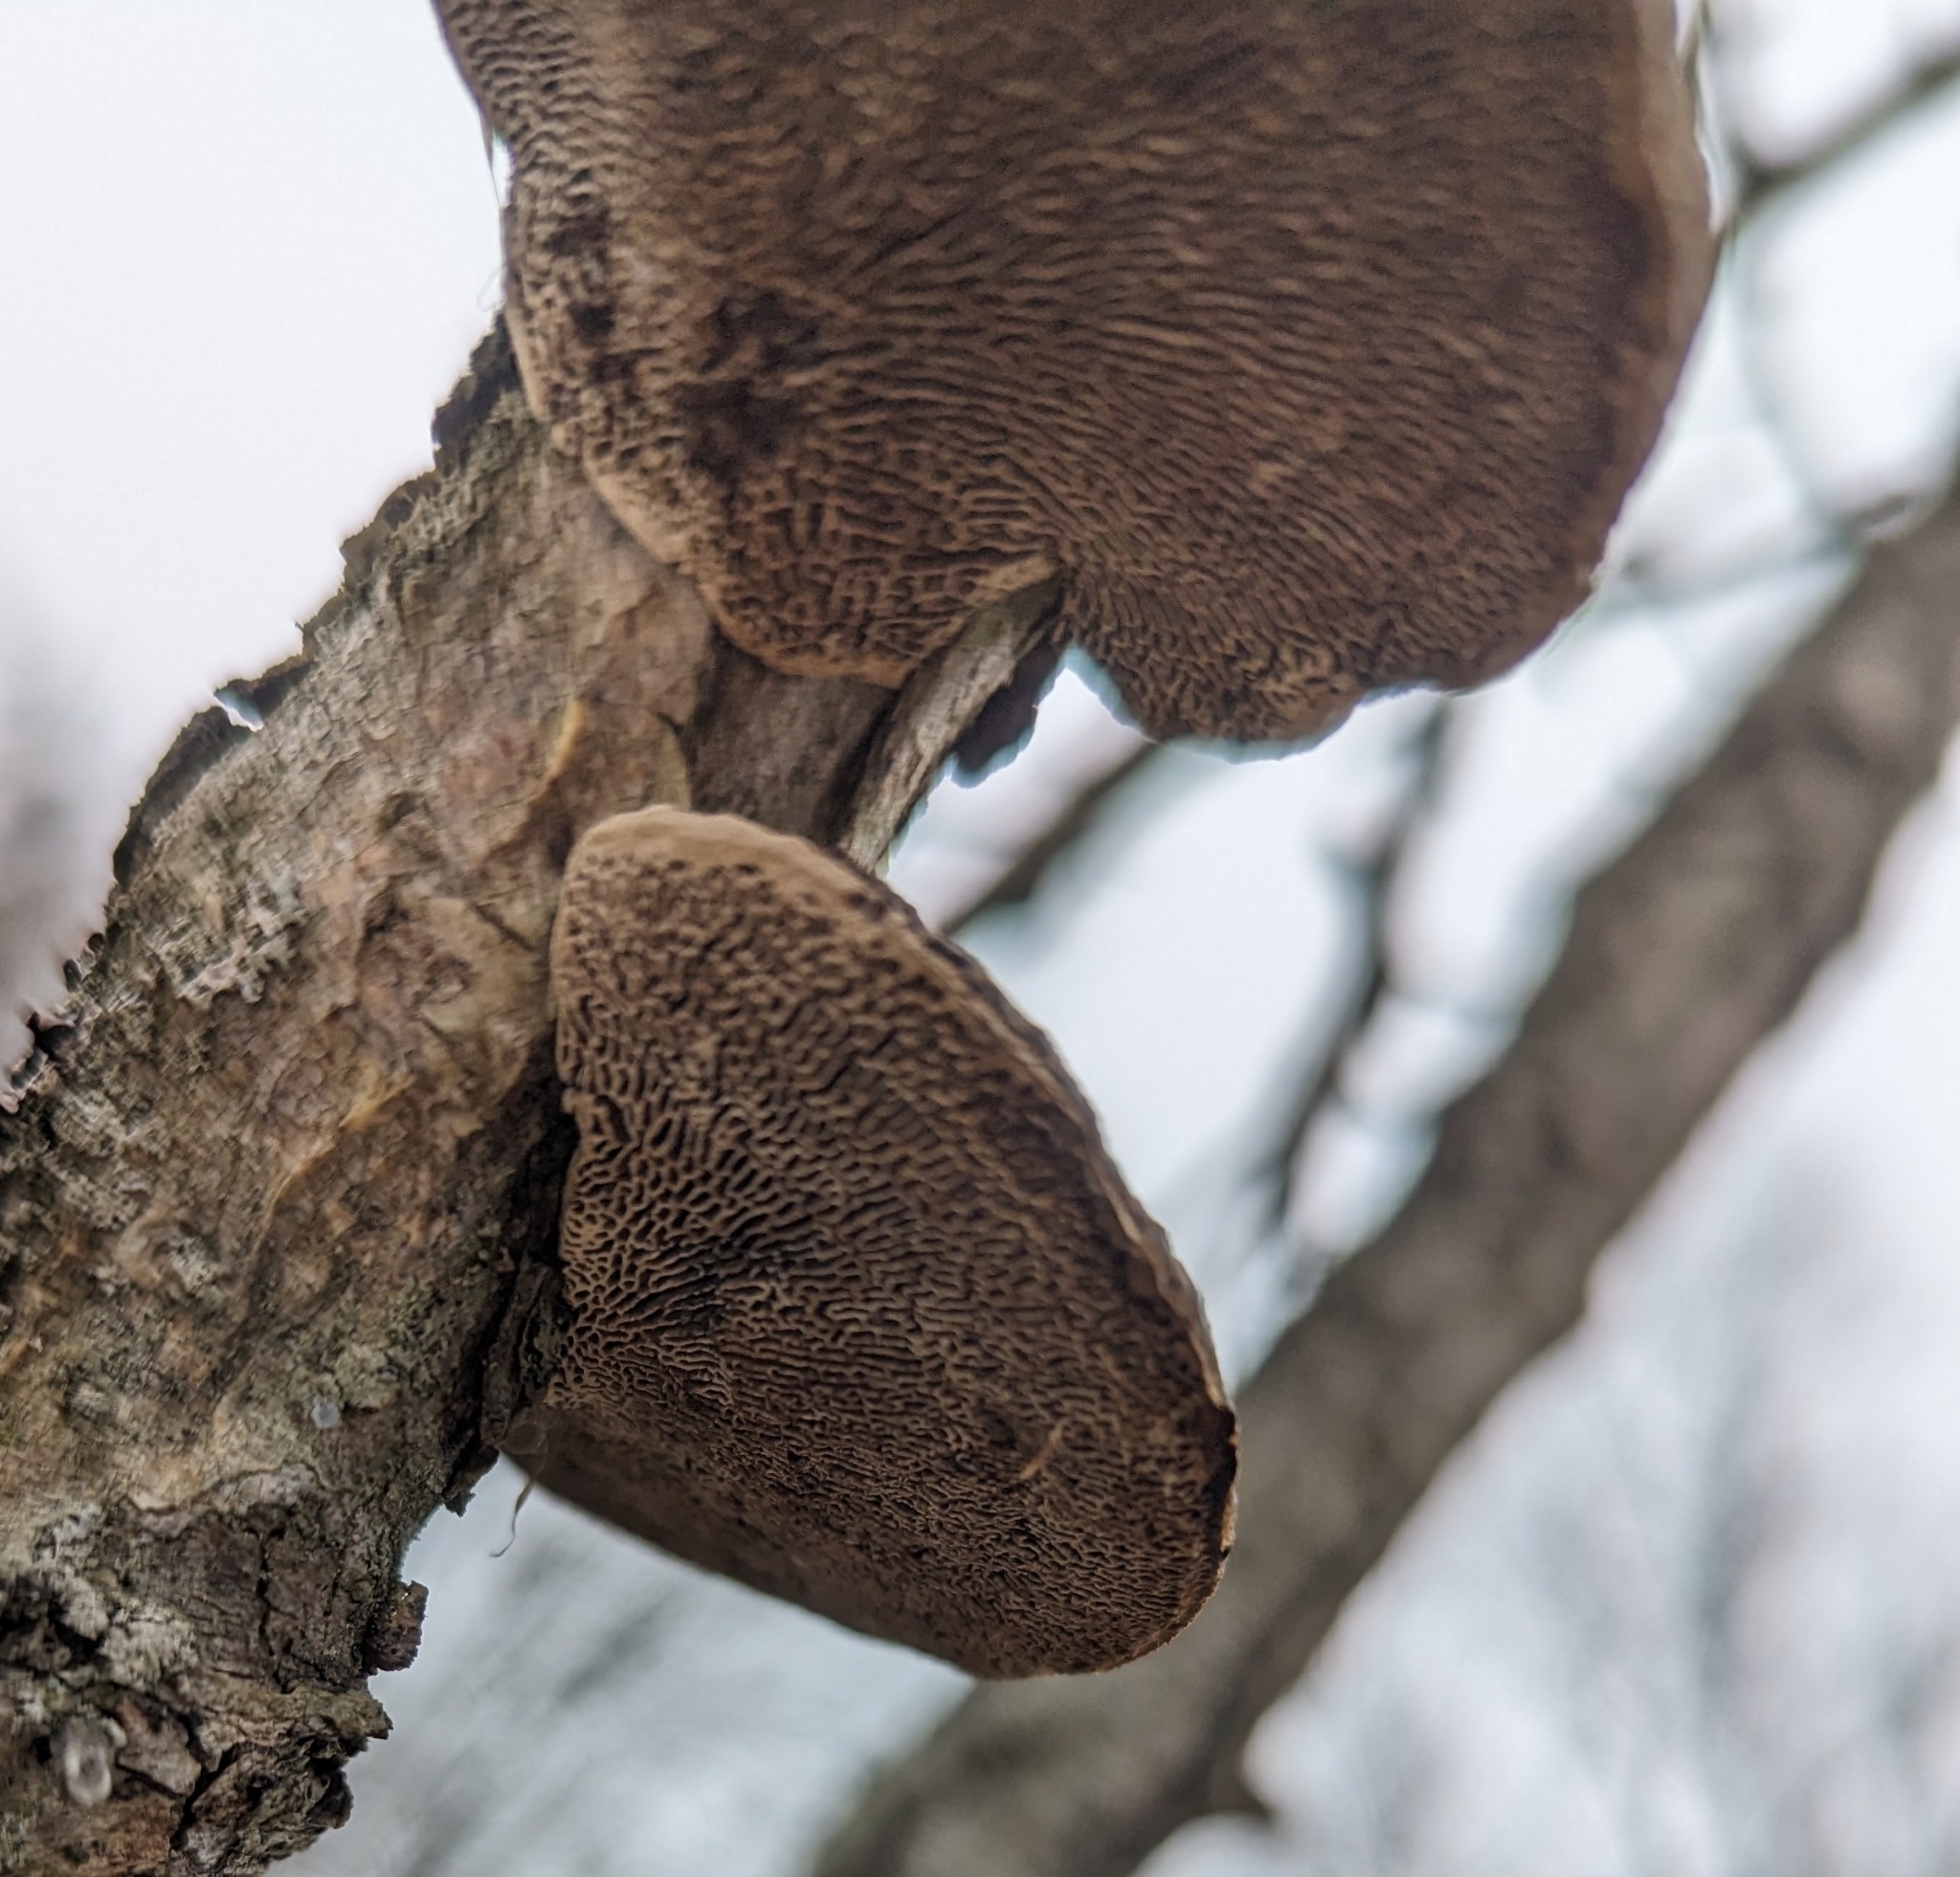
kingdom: Fungi
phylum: Basidiomycota
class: Agaricomycetes
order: Polyporales
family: Polyporaceae
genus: Daedaleopsis
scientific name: Daedaleopsis confragosa
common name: Blushing bracket
